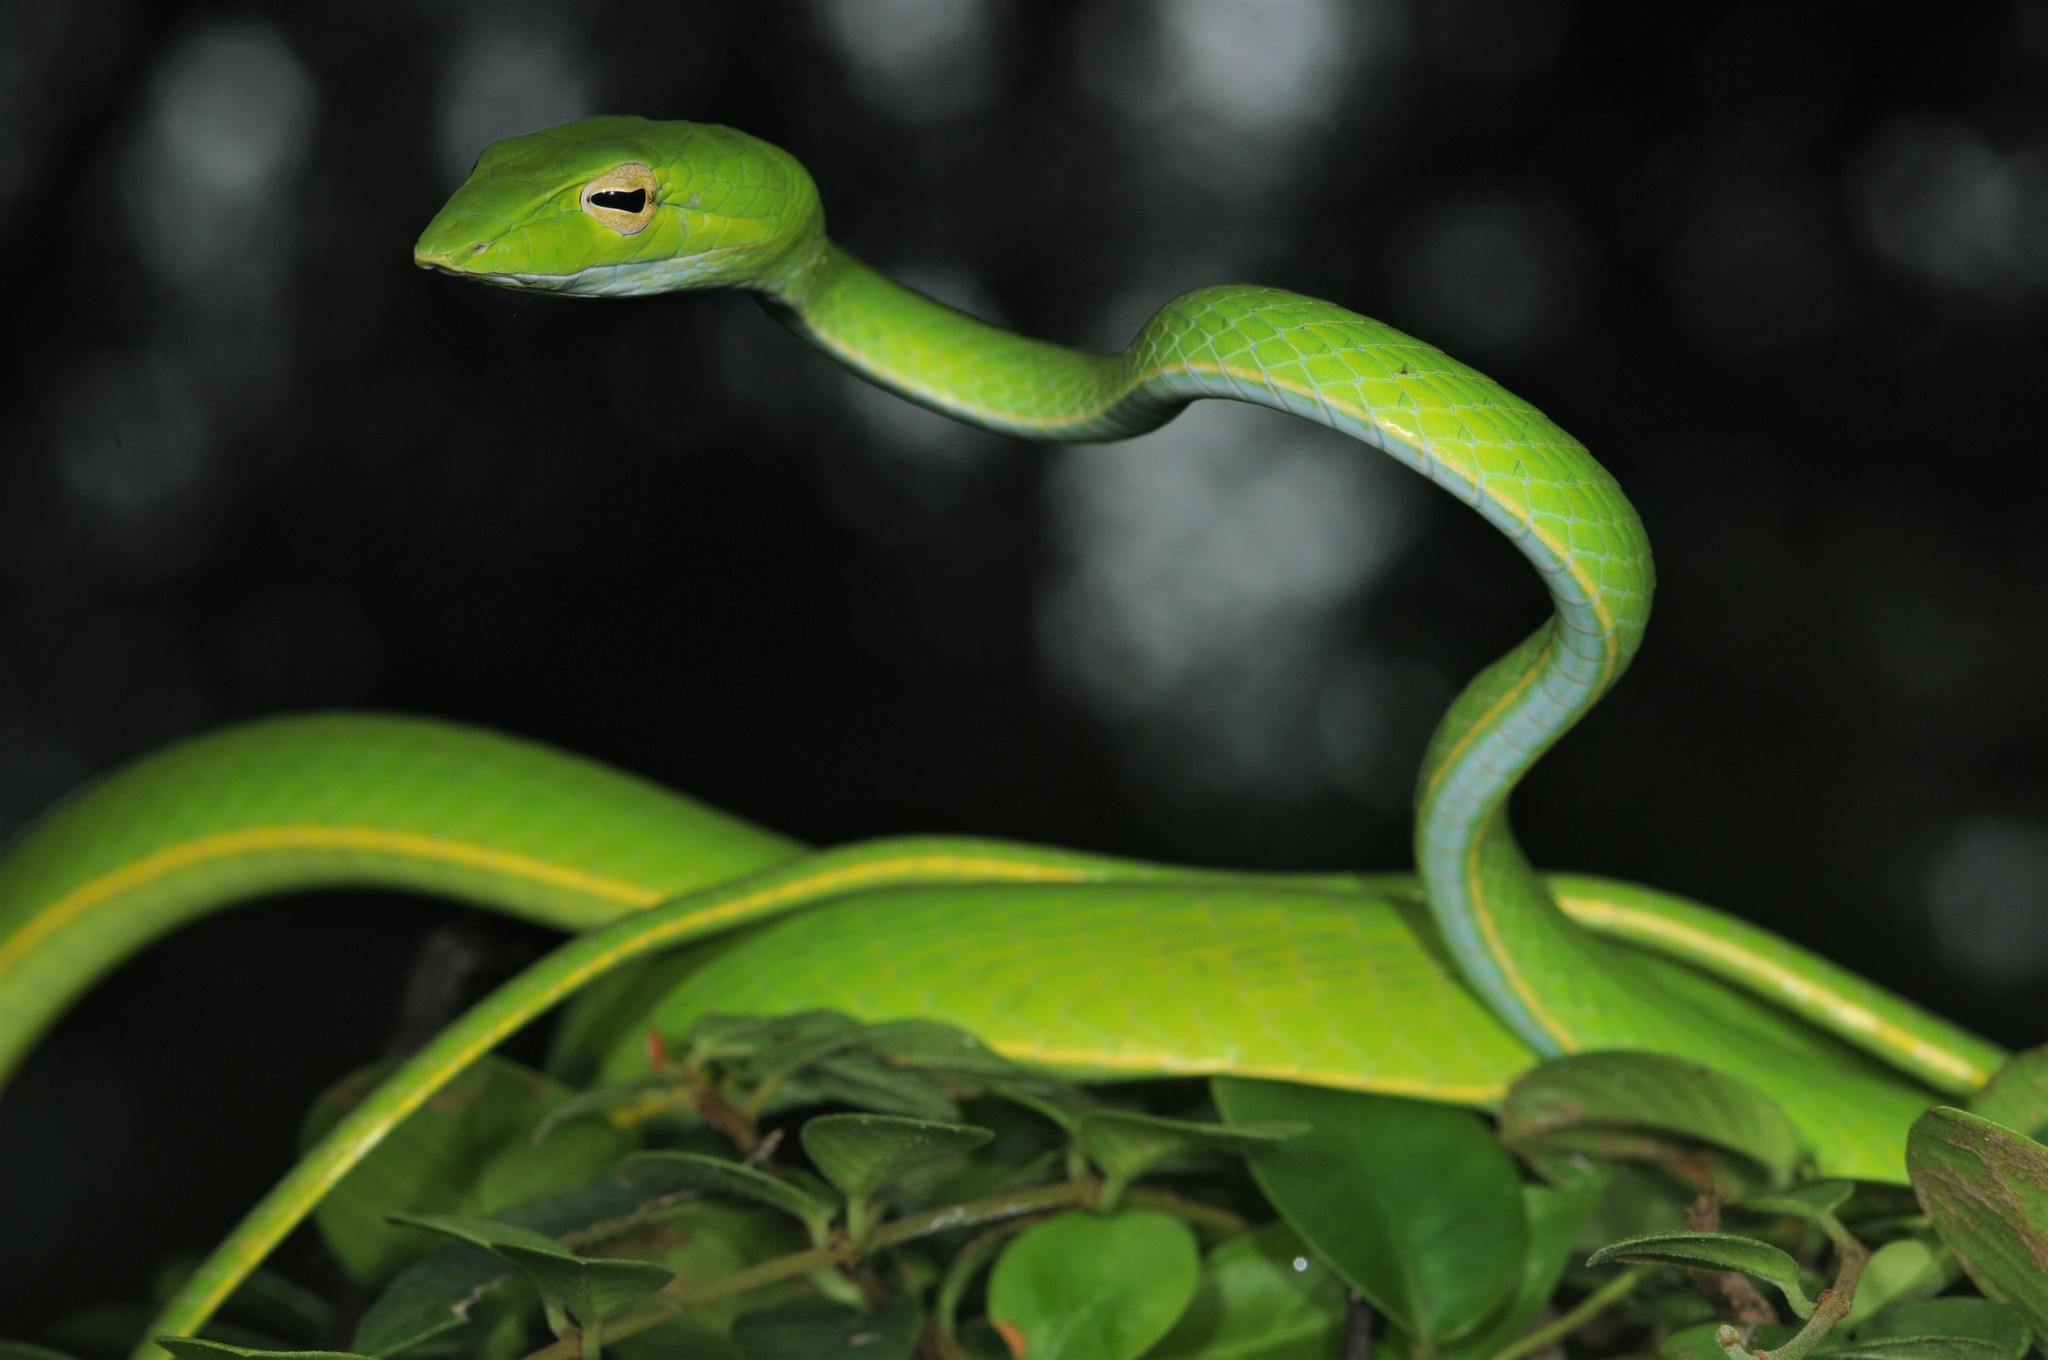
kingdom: Animalia
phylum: Chordata
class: Squamata
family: Colubridae
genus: Ahaetulla
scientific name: Ahaetulla prasina
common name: Oriental whip snake
